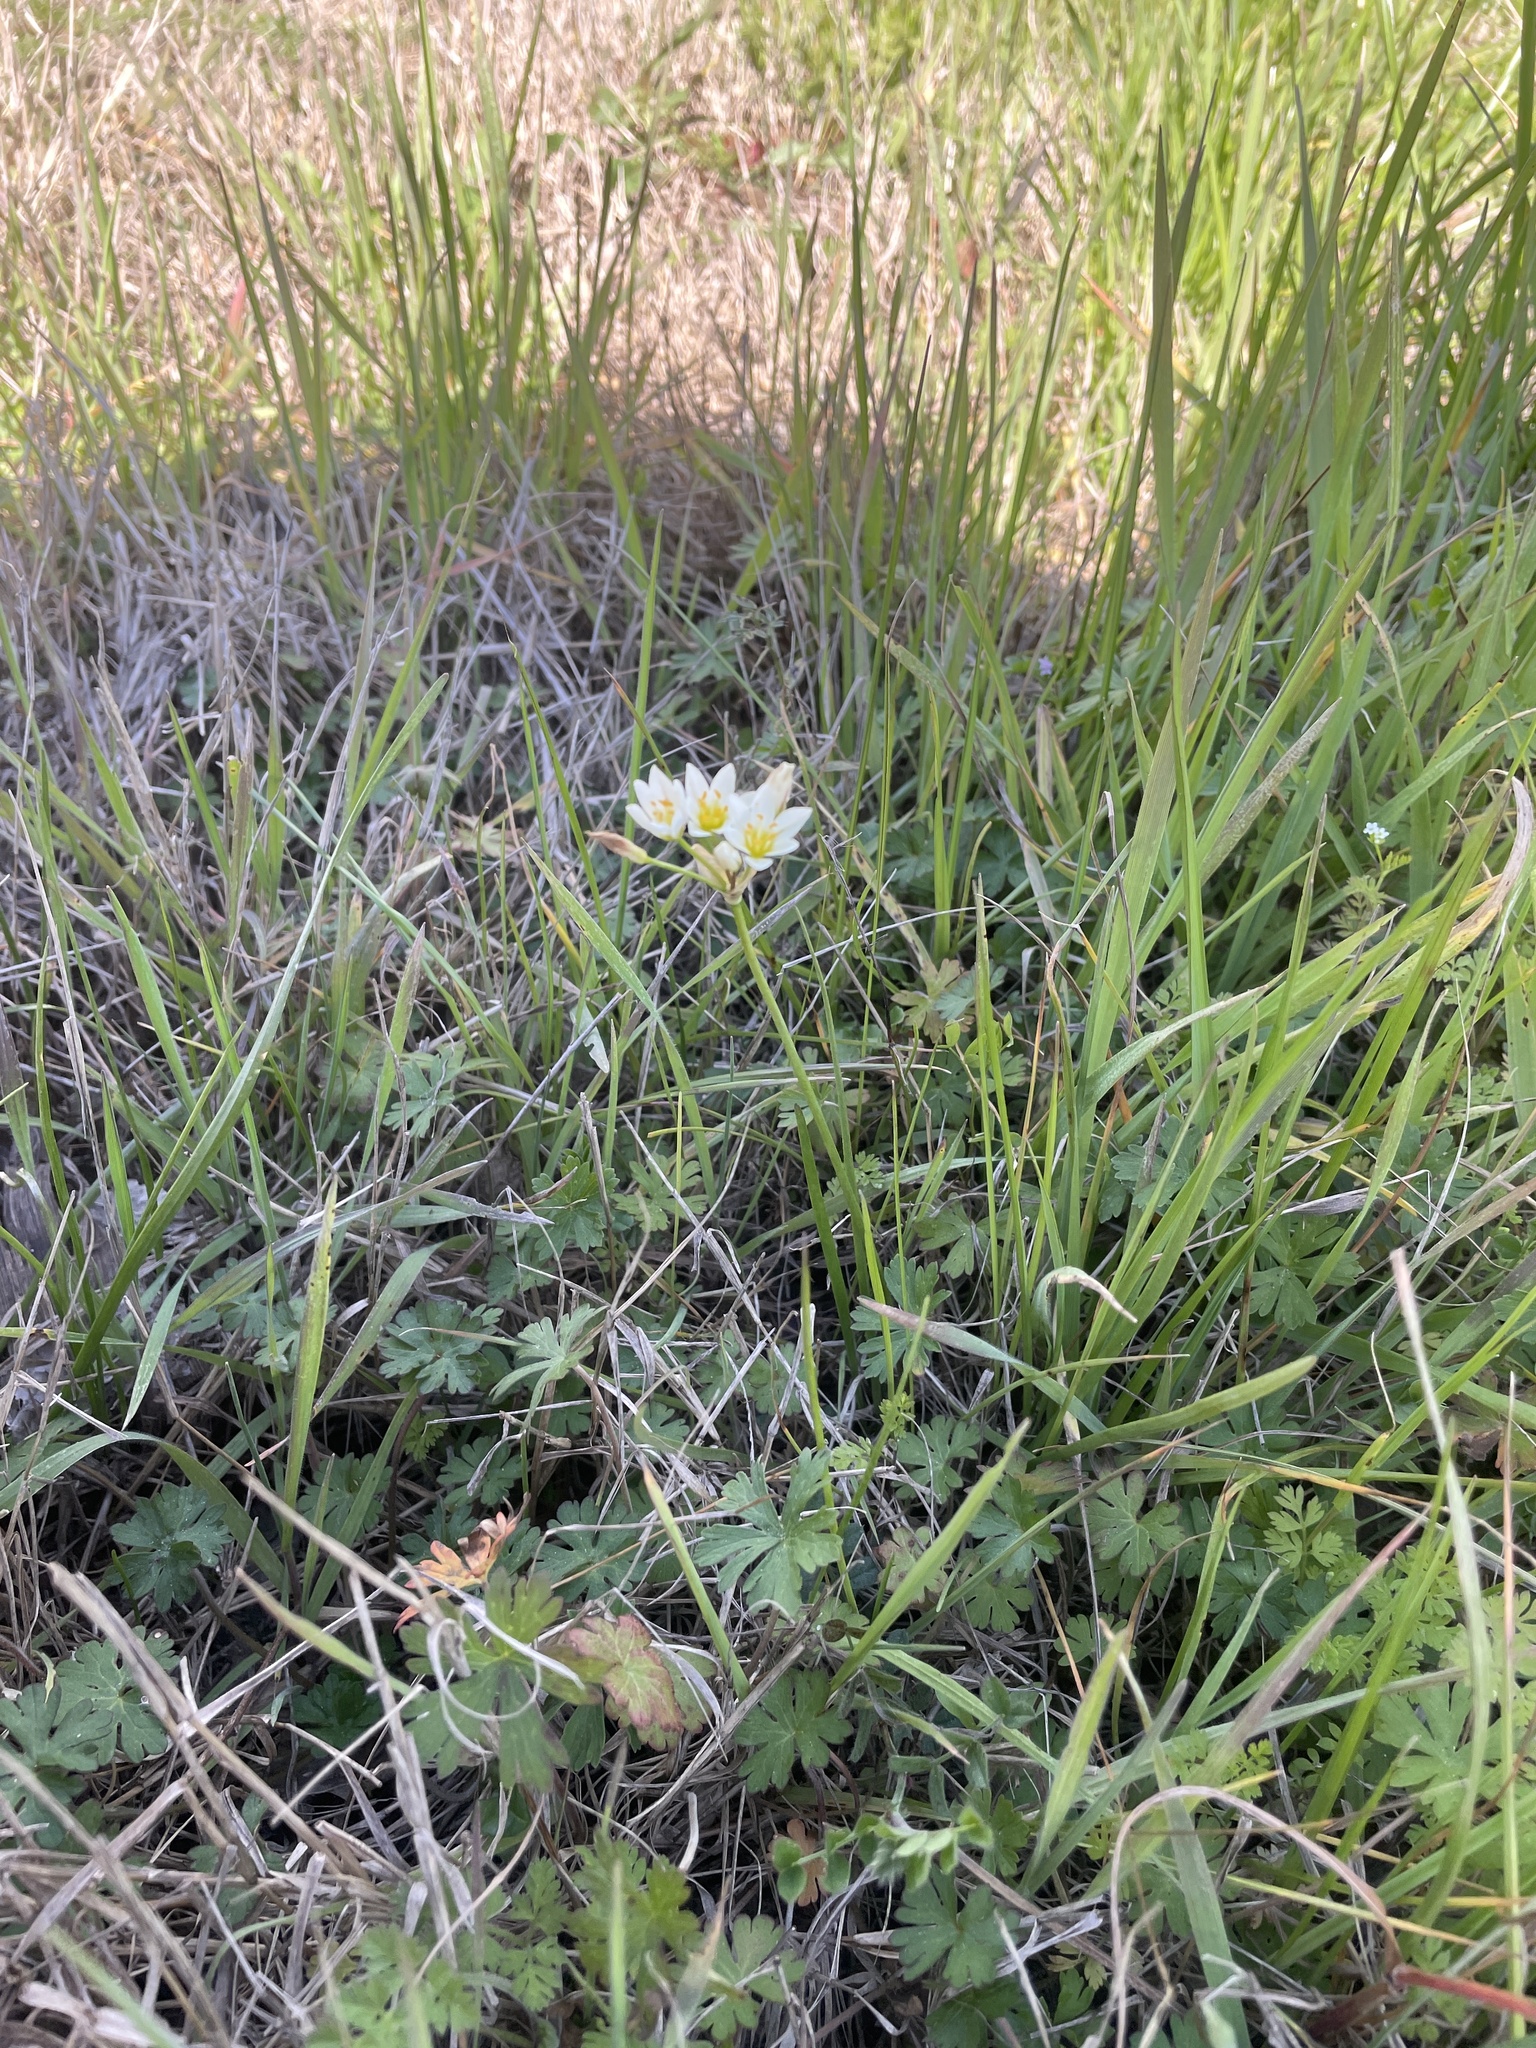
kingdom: Plantae
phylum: Tracheophyta
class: Liliopsida
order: Asparagales
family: Amaryllidaceae
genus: Nothoscordum
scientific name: Nothoscordum bivalve
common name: Crow-poison
